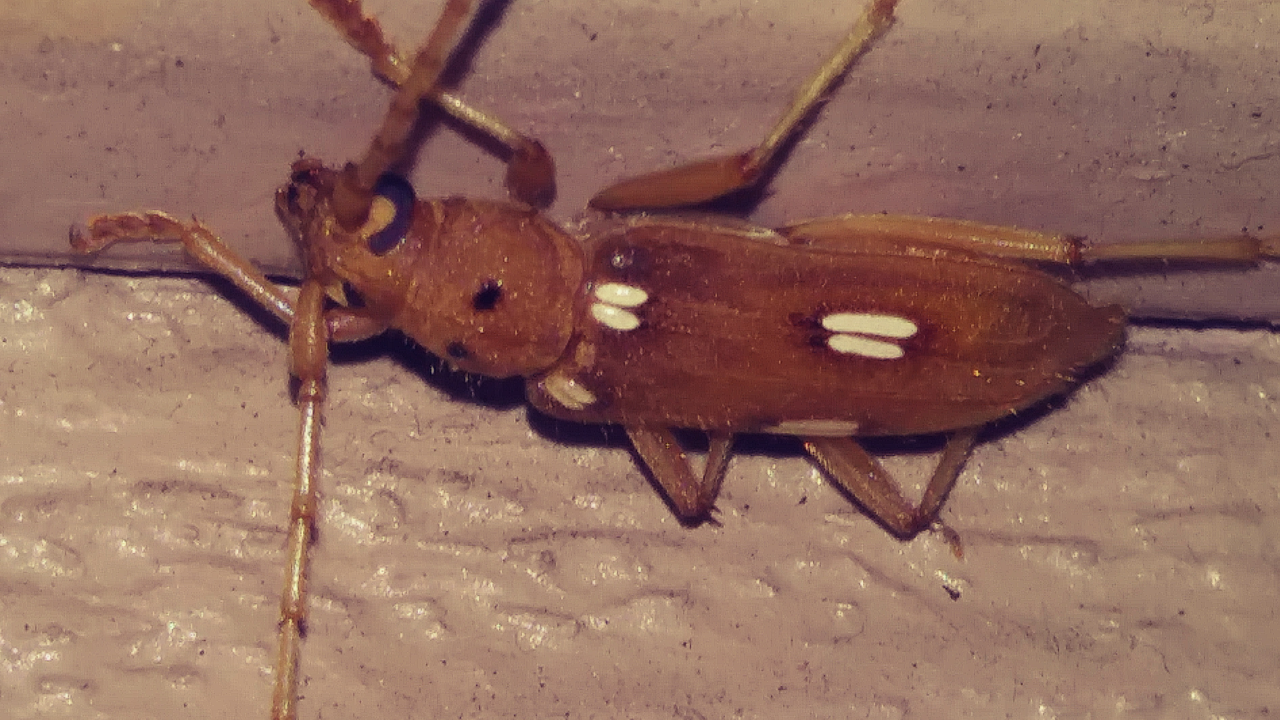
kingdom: Animalia
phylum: Arthropoda
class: Insecta
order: Coleoptera
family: Cerambycidae
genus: Eburia
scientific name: Eburia quadrigeminata
